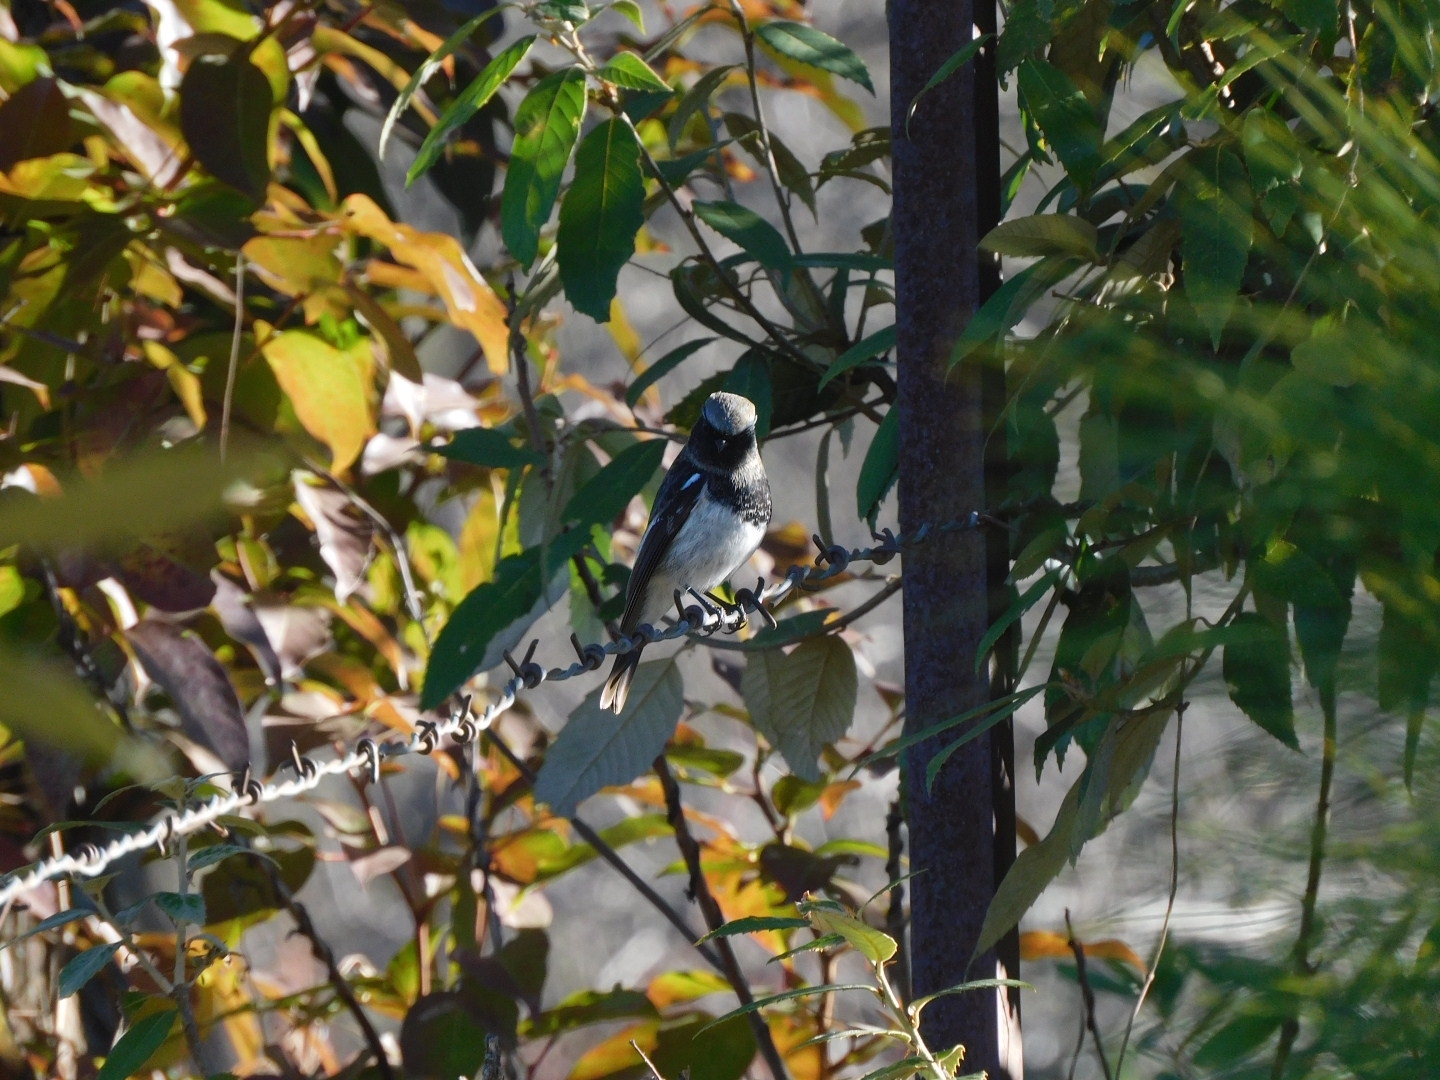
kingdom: Animalia
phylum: Chordata
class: Aves
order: Passeriformes
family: Muscicapidae
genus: Phoenicurus
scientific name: Phoenicurus coeruleocephala
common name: Blue-capped redstart
